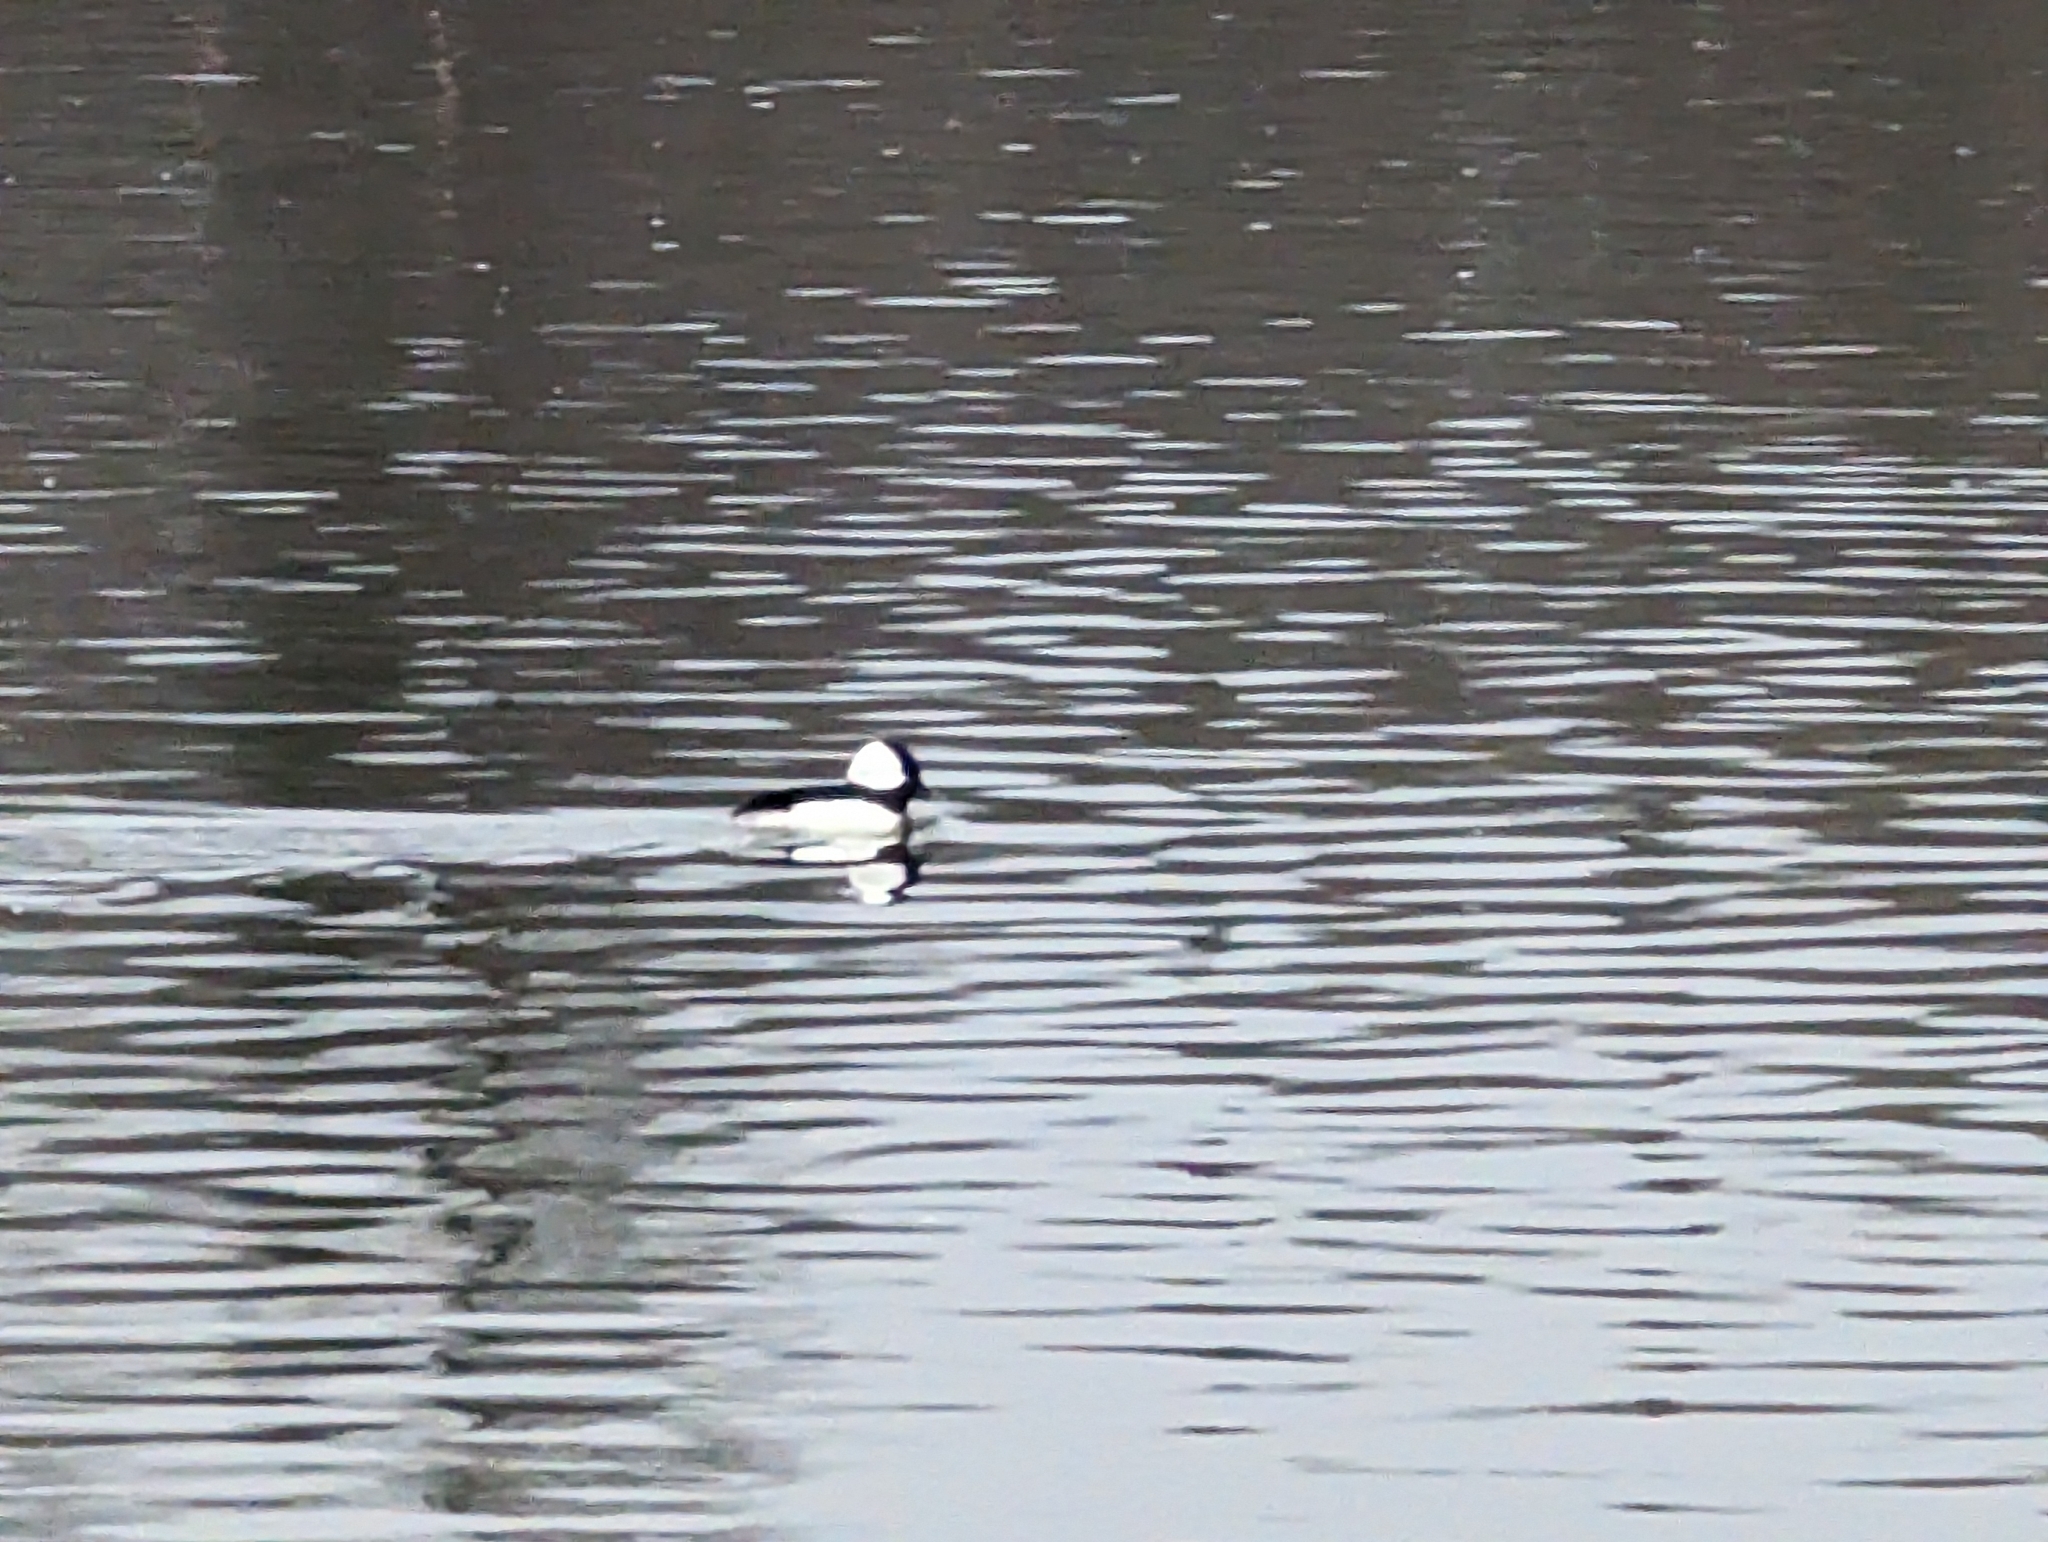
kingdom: Animalia
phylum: Chordata
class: Aves
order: Anseriformes
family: Anatidae
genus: Bucephala
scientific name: Bucephala albeola
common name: Bufflehead
